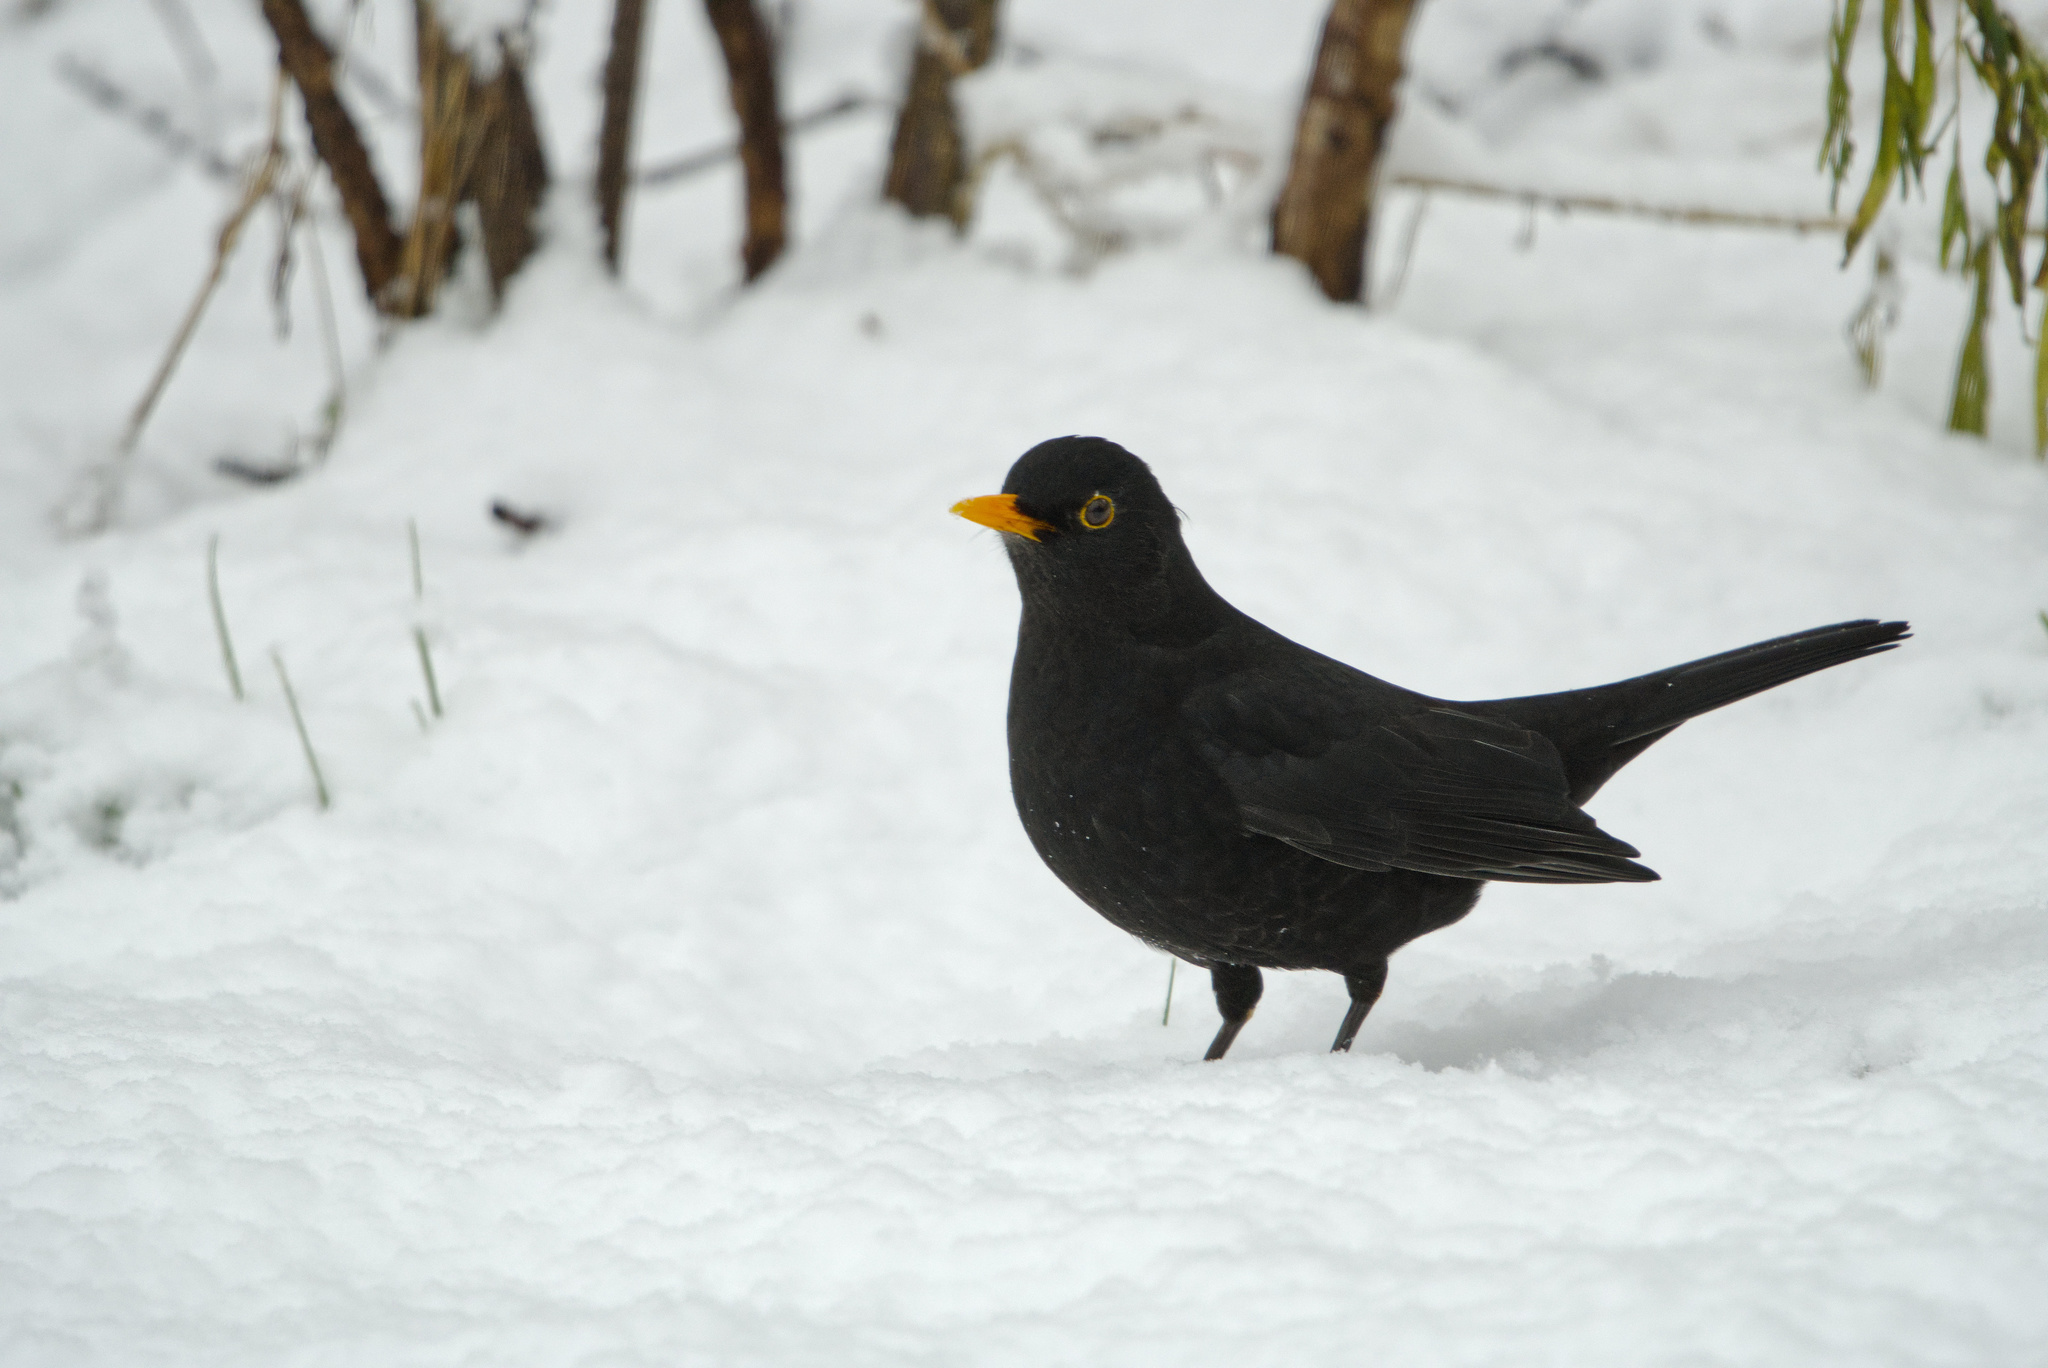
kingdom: Animalia
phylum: Chordata
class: Aves
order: Passeriformes
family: Turdidae
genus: Turdus
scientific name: Turdus merula
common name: Common blackbird
